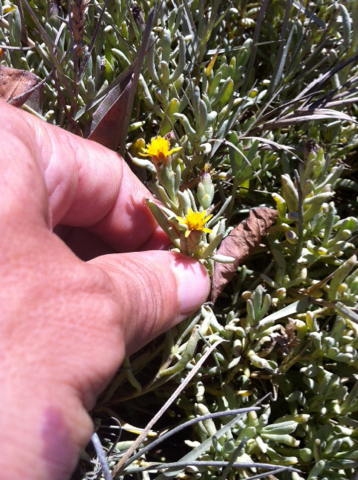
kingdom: Plantae
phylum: Tracheophyta
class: Magnoliopsida
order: Asterales
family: Asteraceae
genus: Jaumea
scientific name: Jaumea carnosa
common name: Fleshy jaumea
